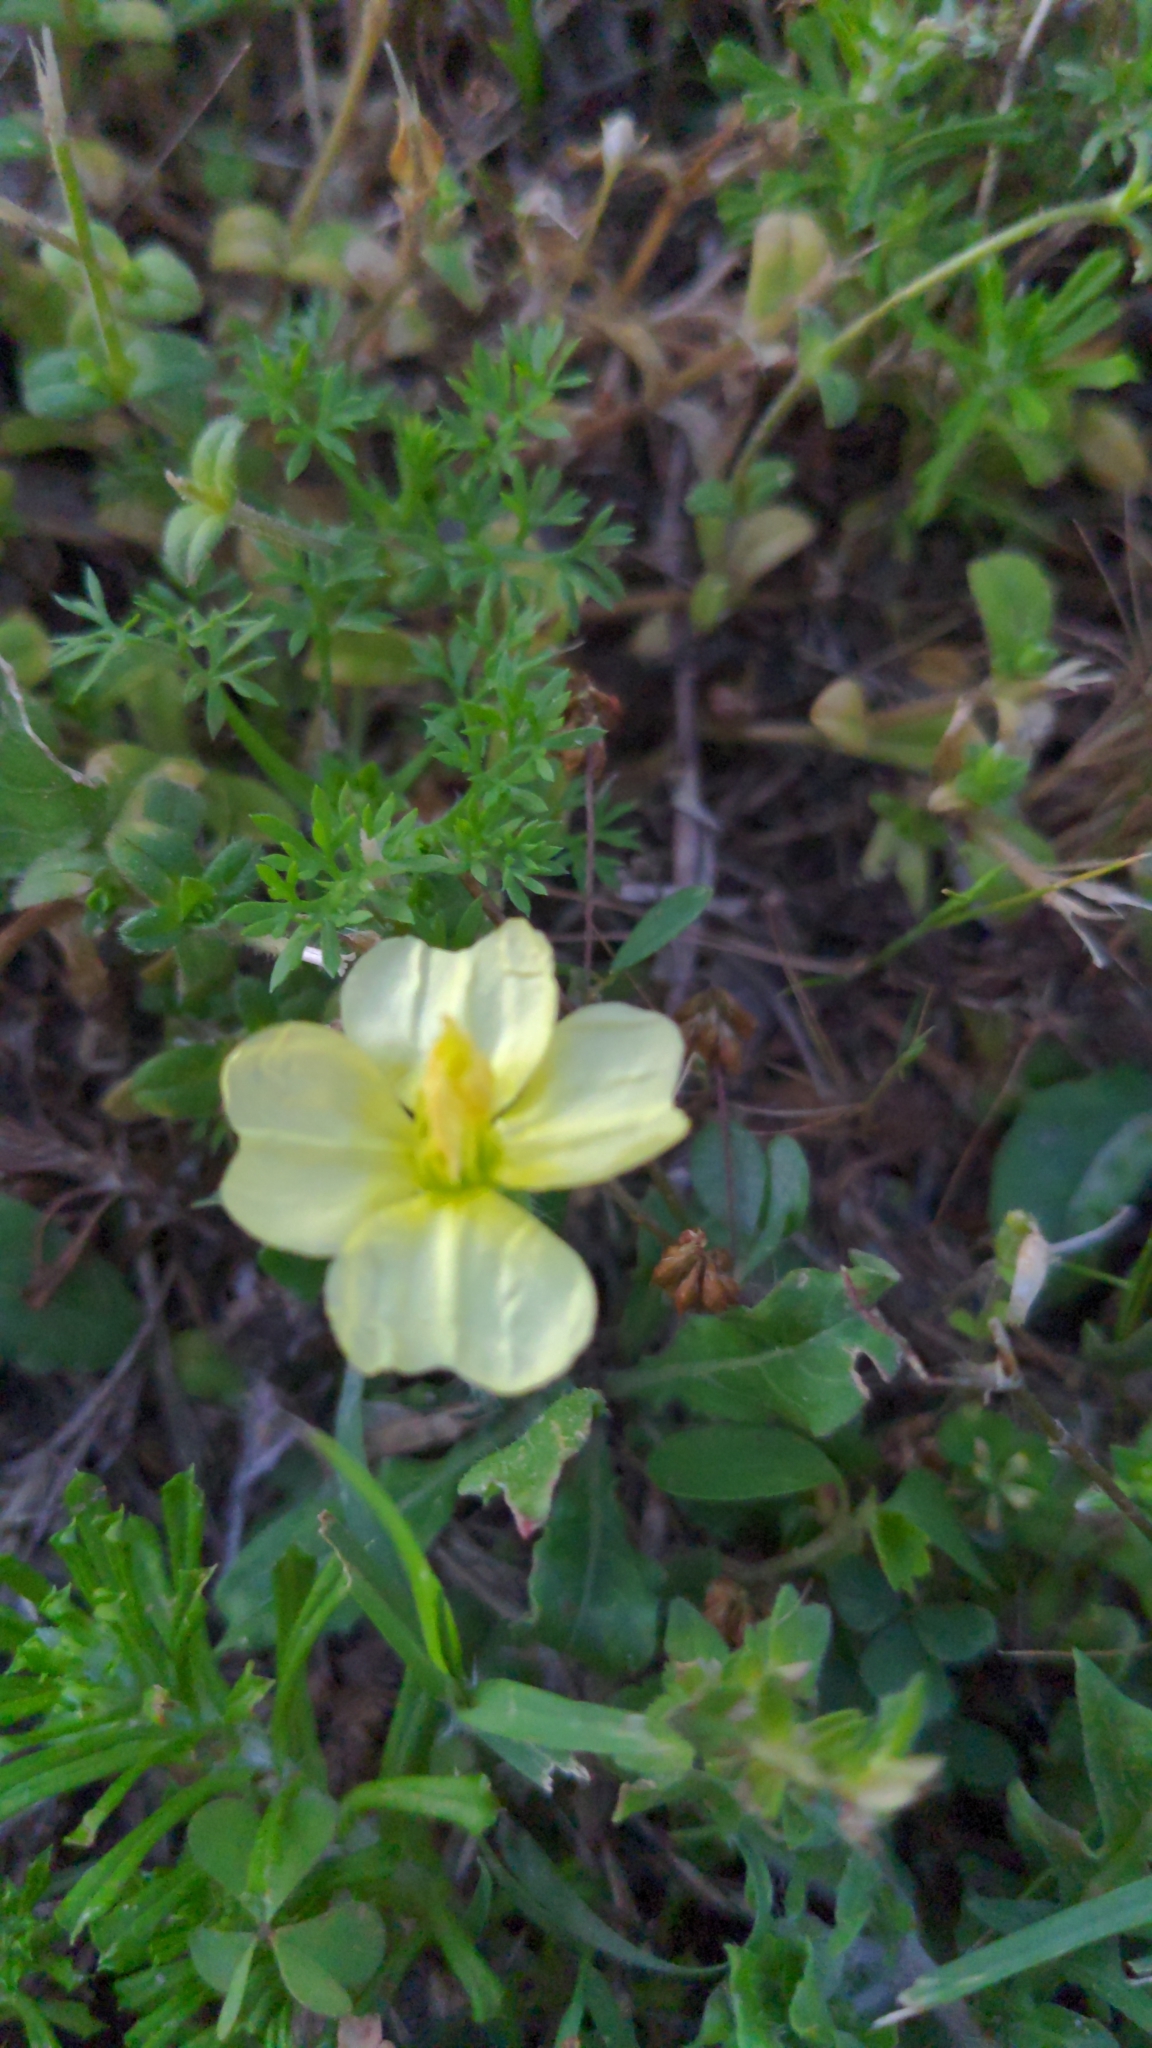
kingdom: Plantae
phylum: Tracheophyta
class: Magnoliopsida
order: Myrtales
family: Onagraceae
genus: Oenothera
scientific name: Oenothera laciniata
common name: Cut-leaved evening-primrose
